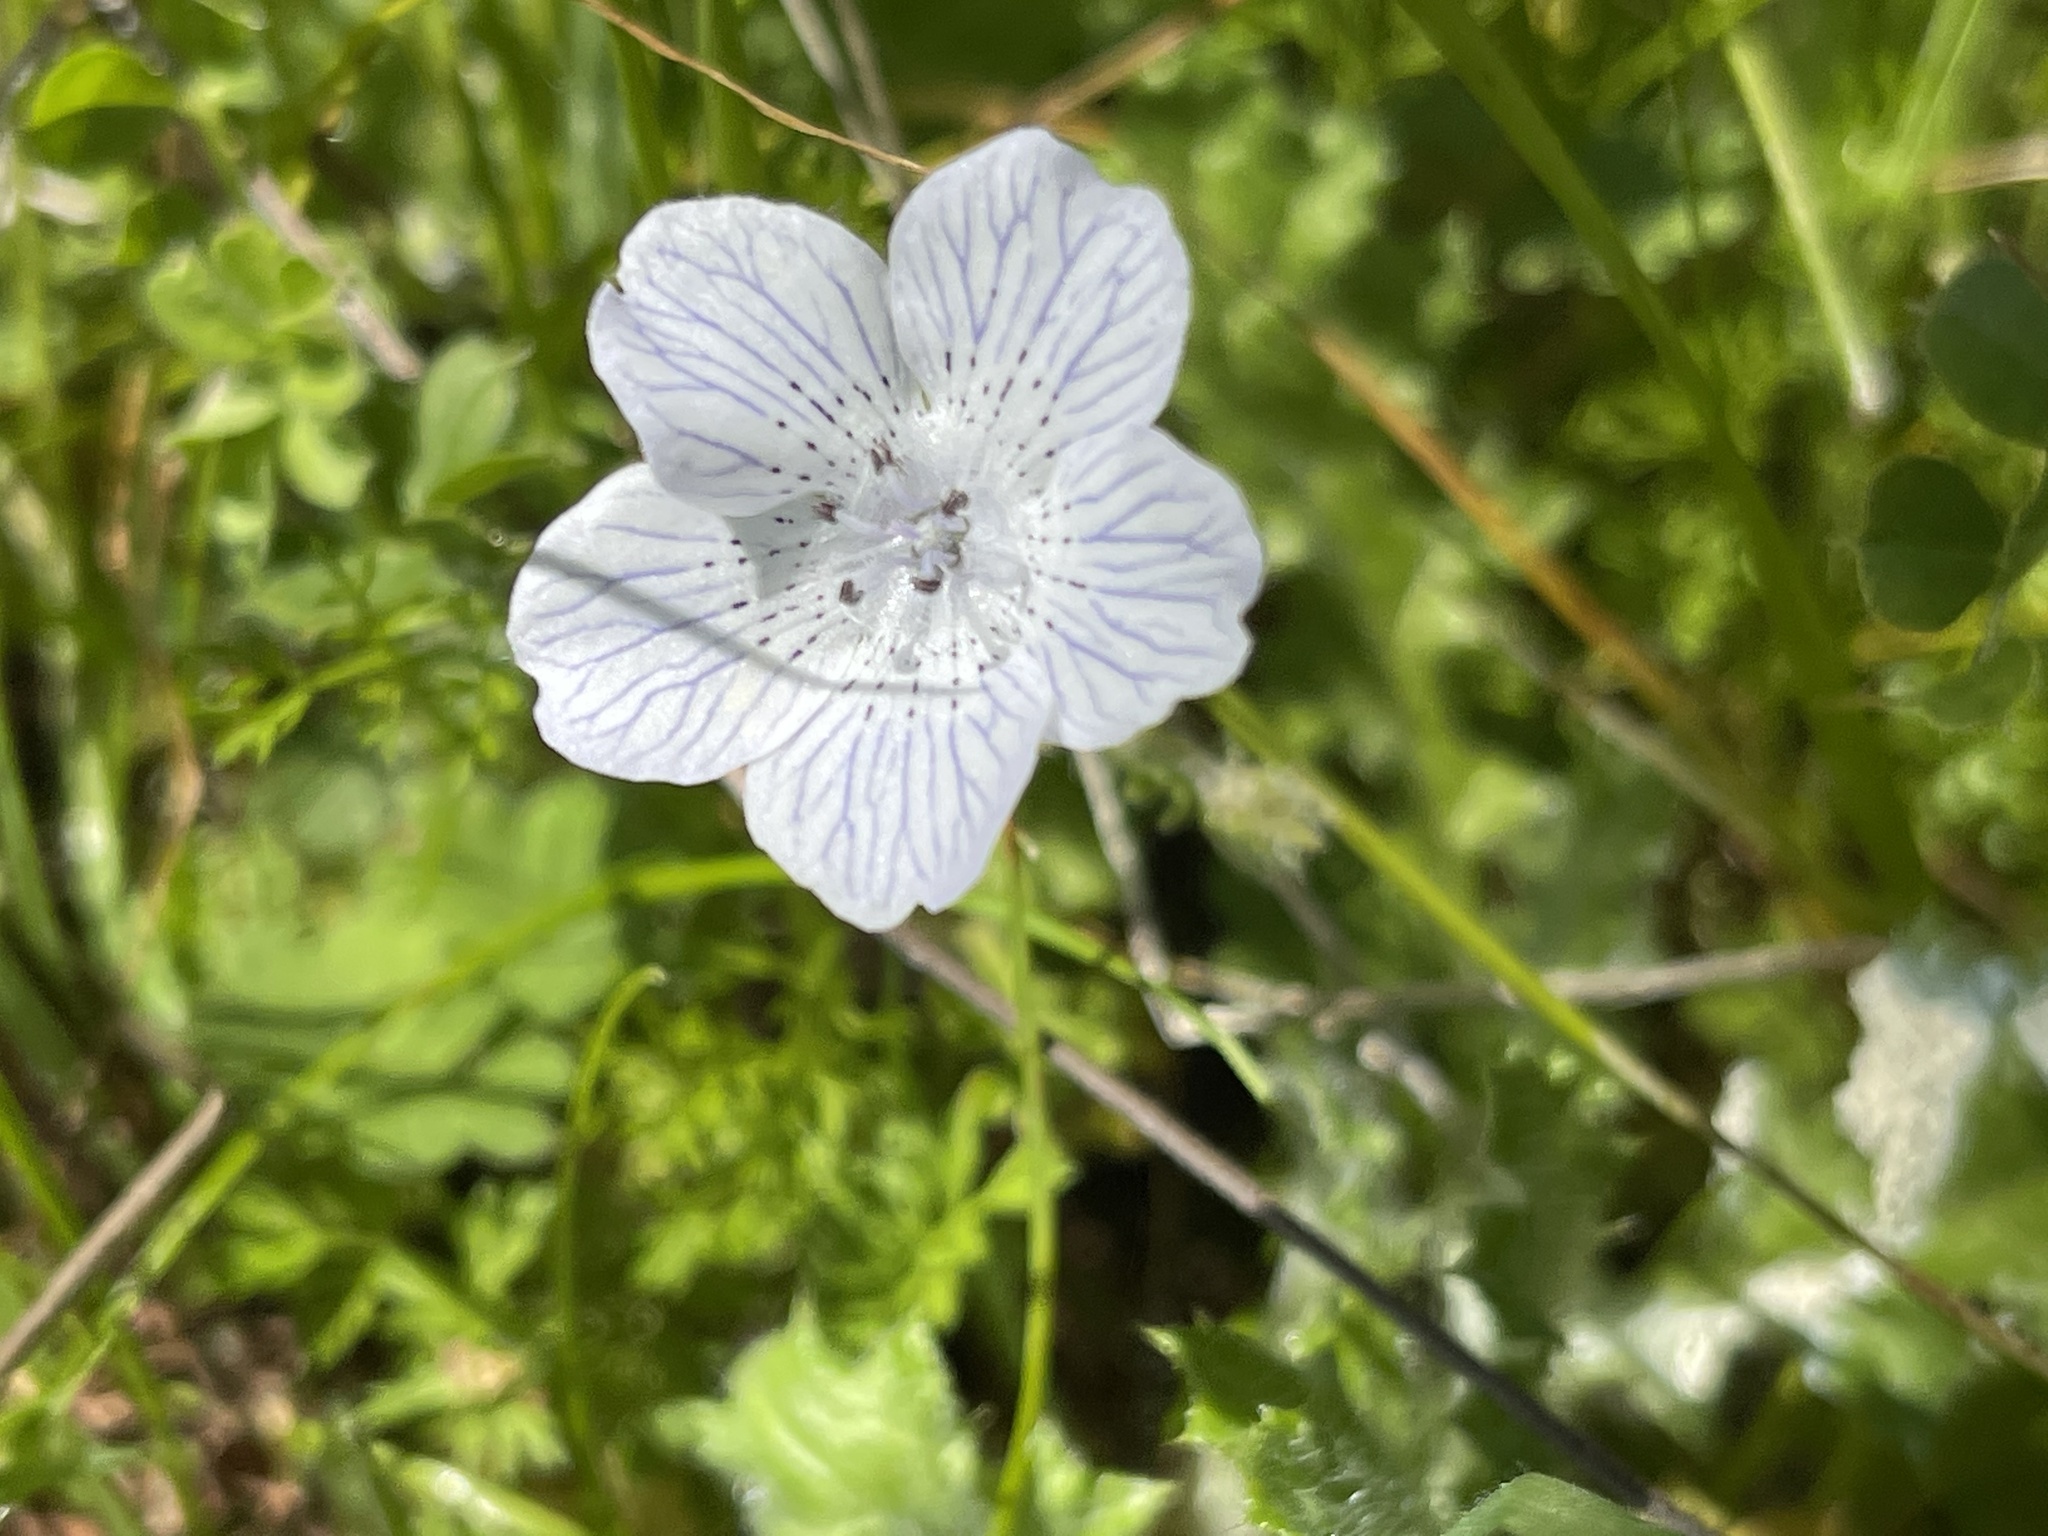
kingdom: Plantae
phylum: Tracheophyta
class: Magnoliopsida
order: Boraginales
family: Hydrophyllaceae
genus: Nemophila
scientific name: Nemophila menziesii
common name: Baby's-blue-eyes
